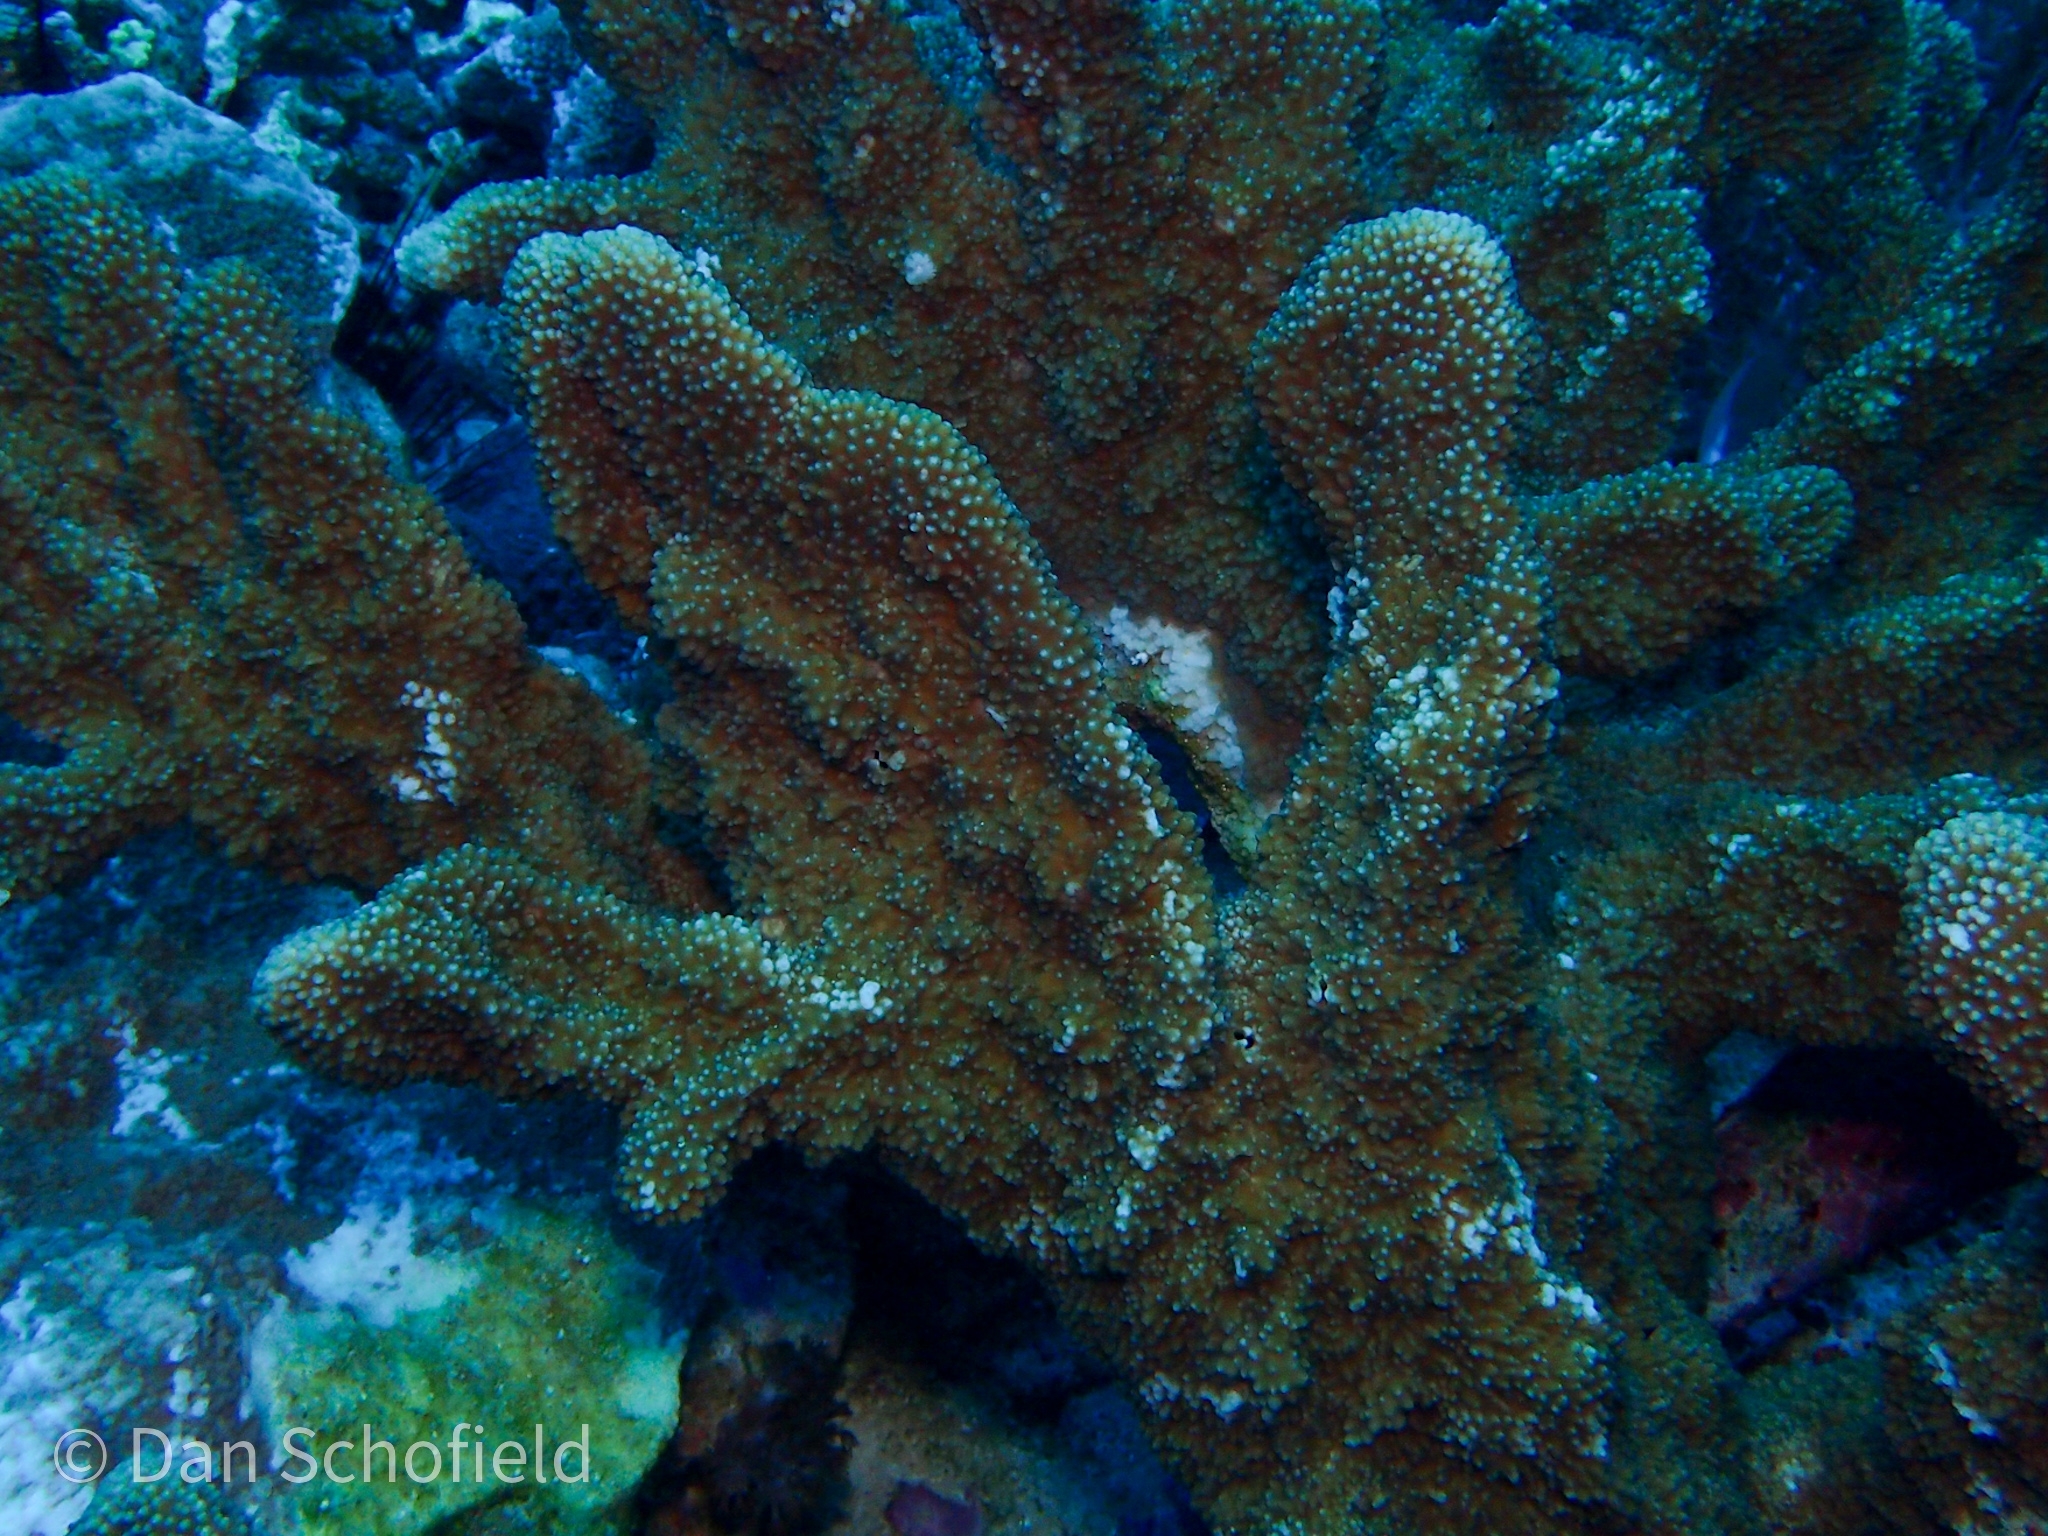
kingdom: Animalia
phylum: Cnidaria
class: Anthozoa
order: Scleractinia
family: Acroporidae
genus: Isopora
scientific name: Isopora palifera
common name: Catch bowl coral
